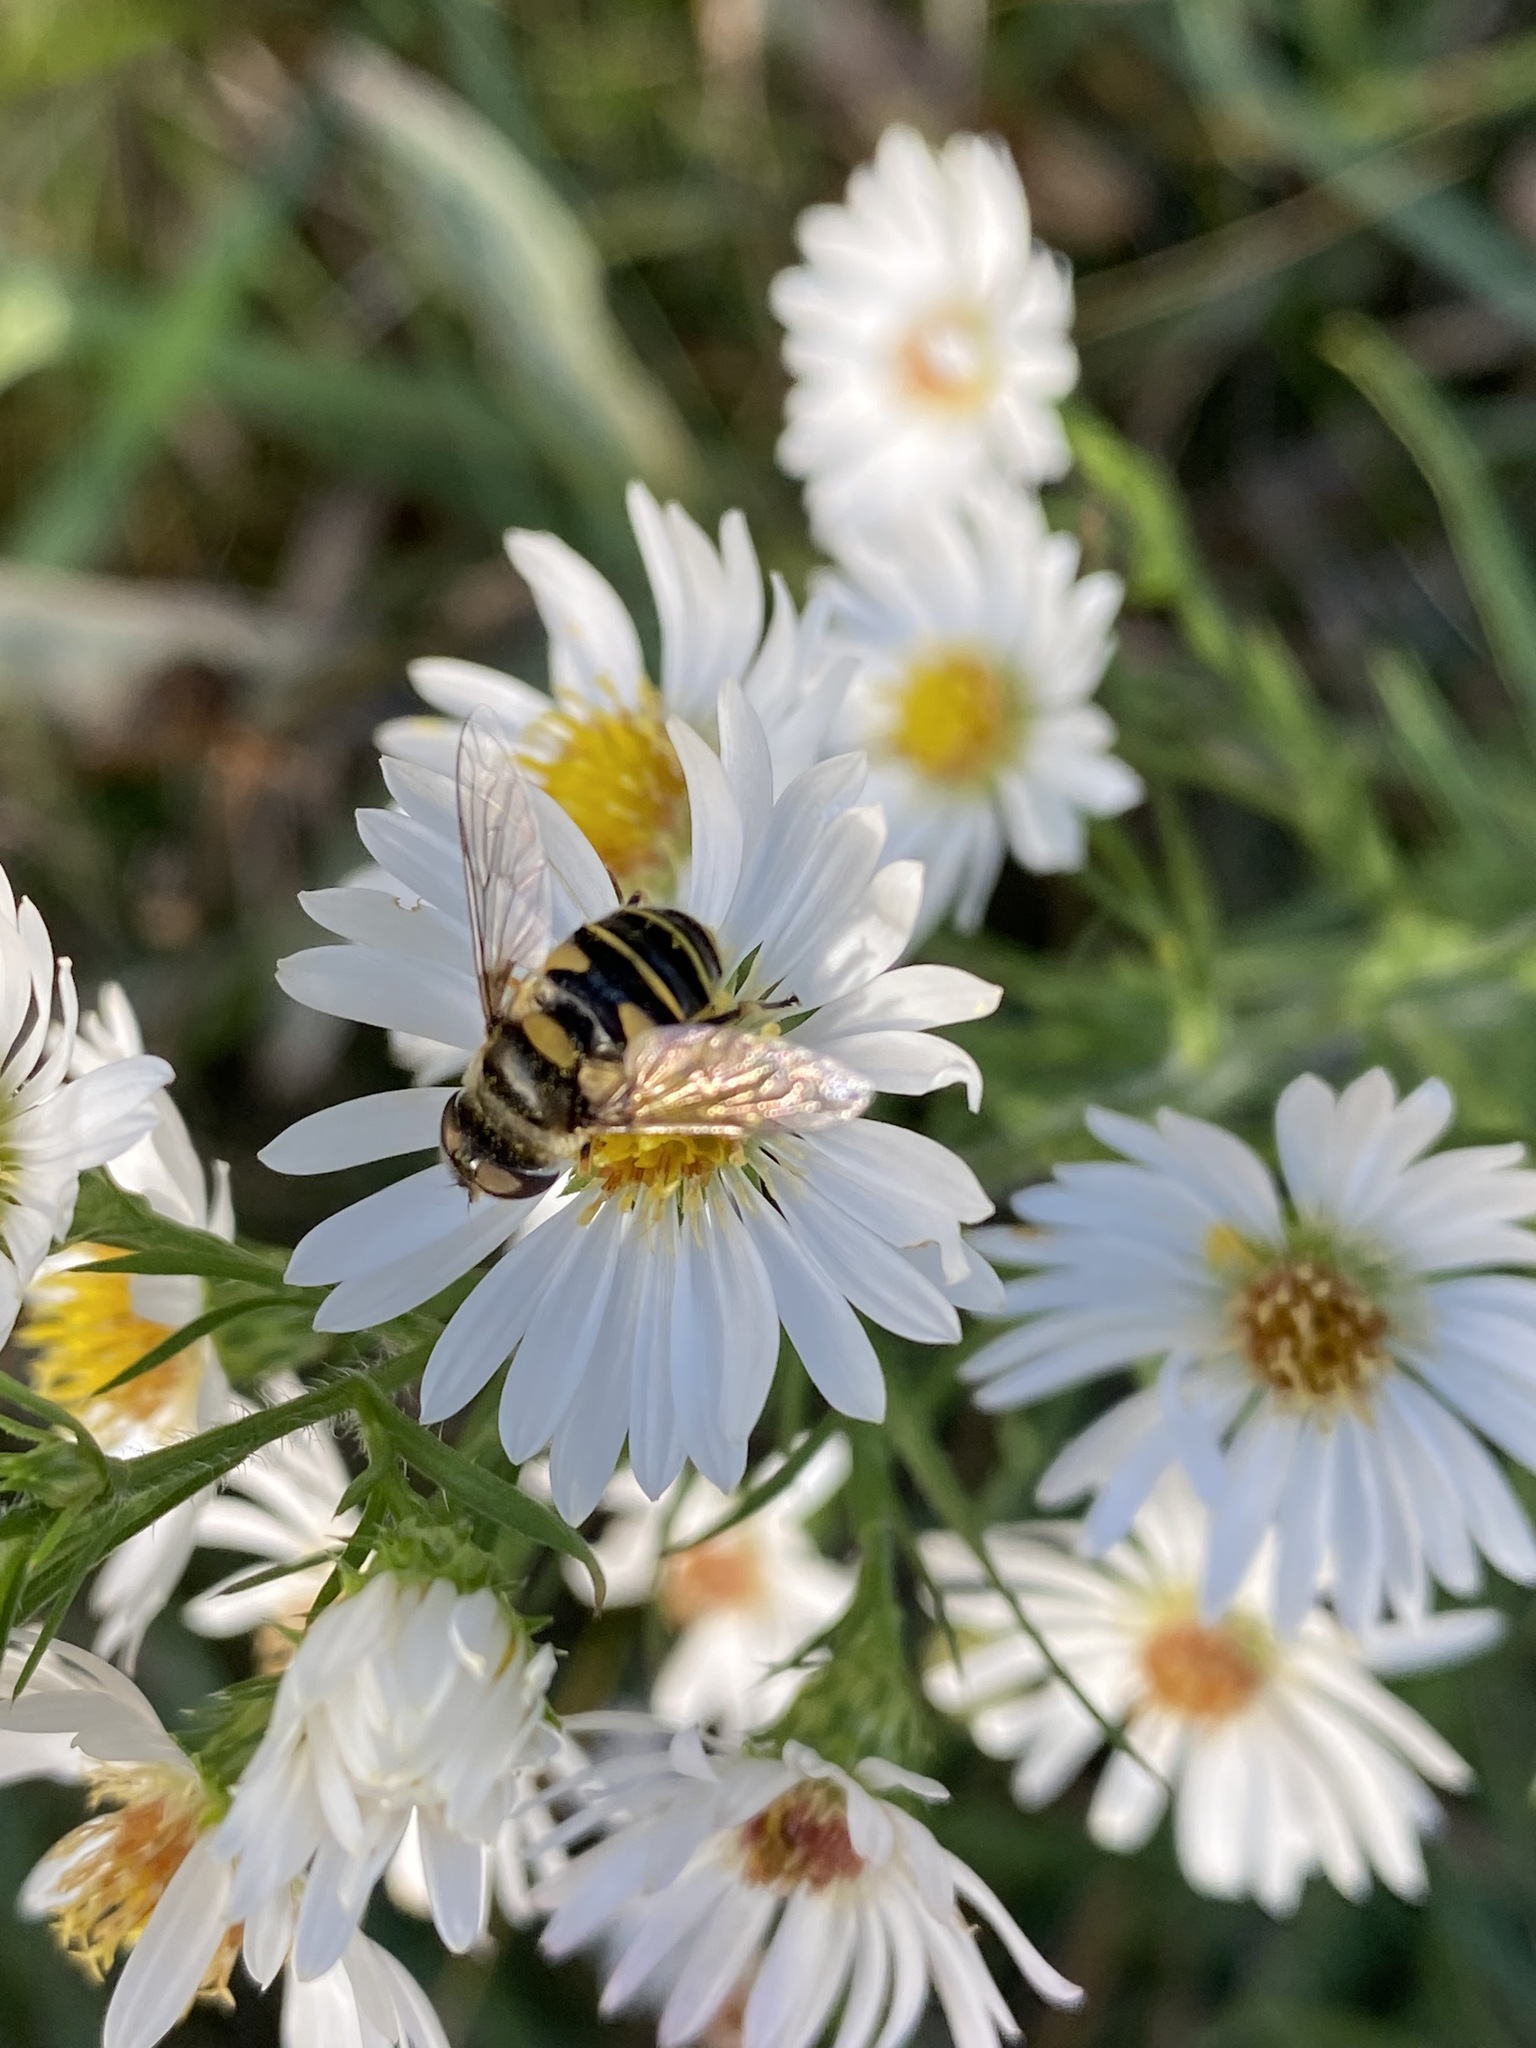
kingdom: Animalia
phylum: Arthropoda
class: Insecta
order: Diptera
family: Syrphidae
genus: Eristalis
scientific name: Eristalis transversa
